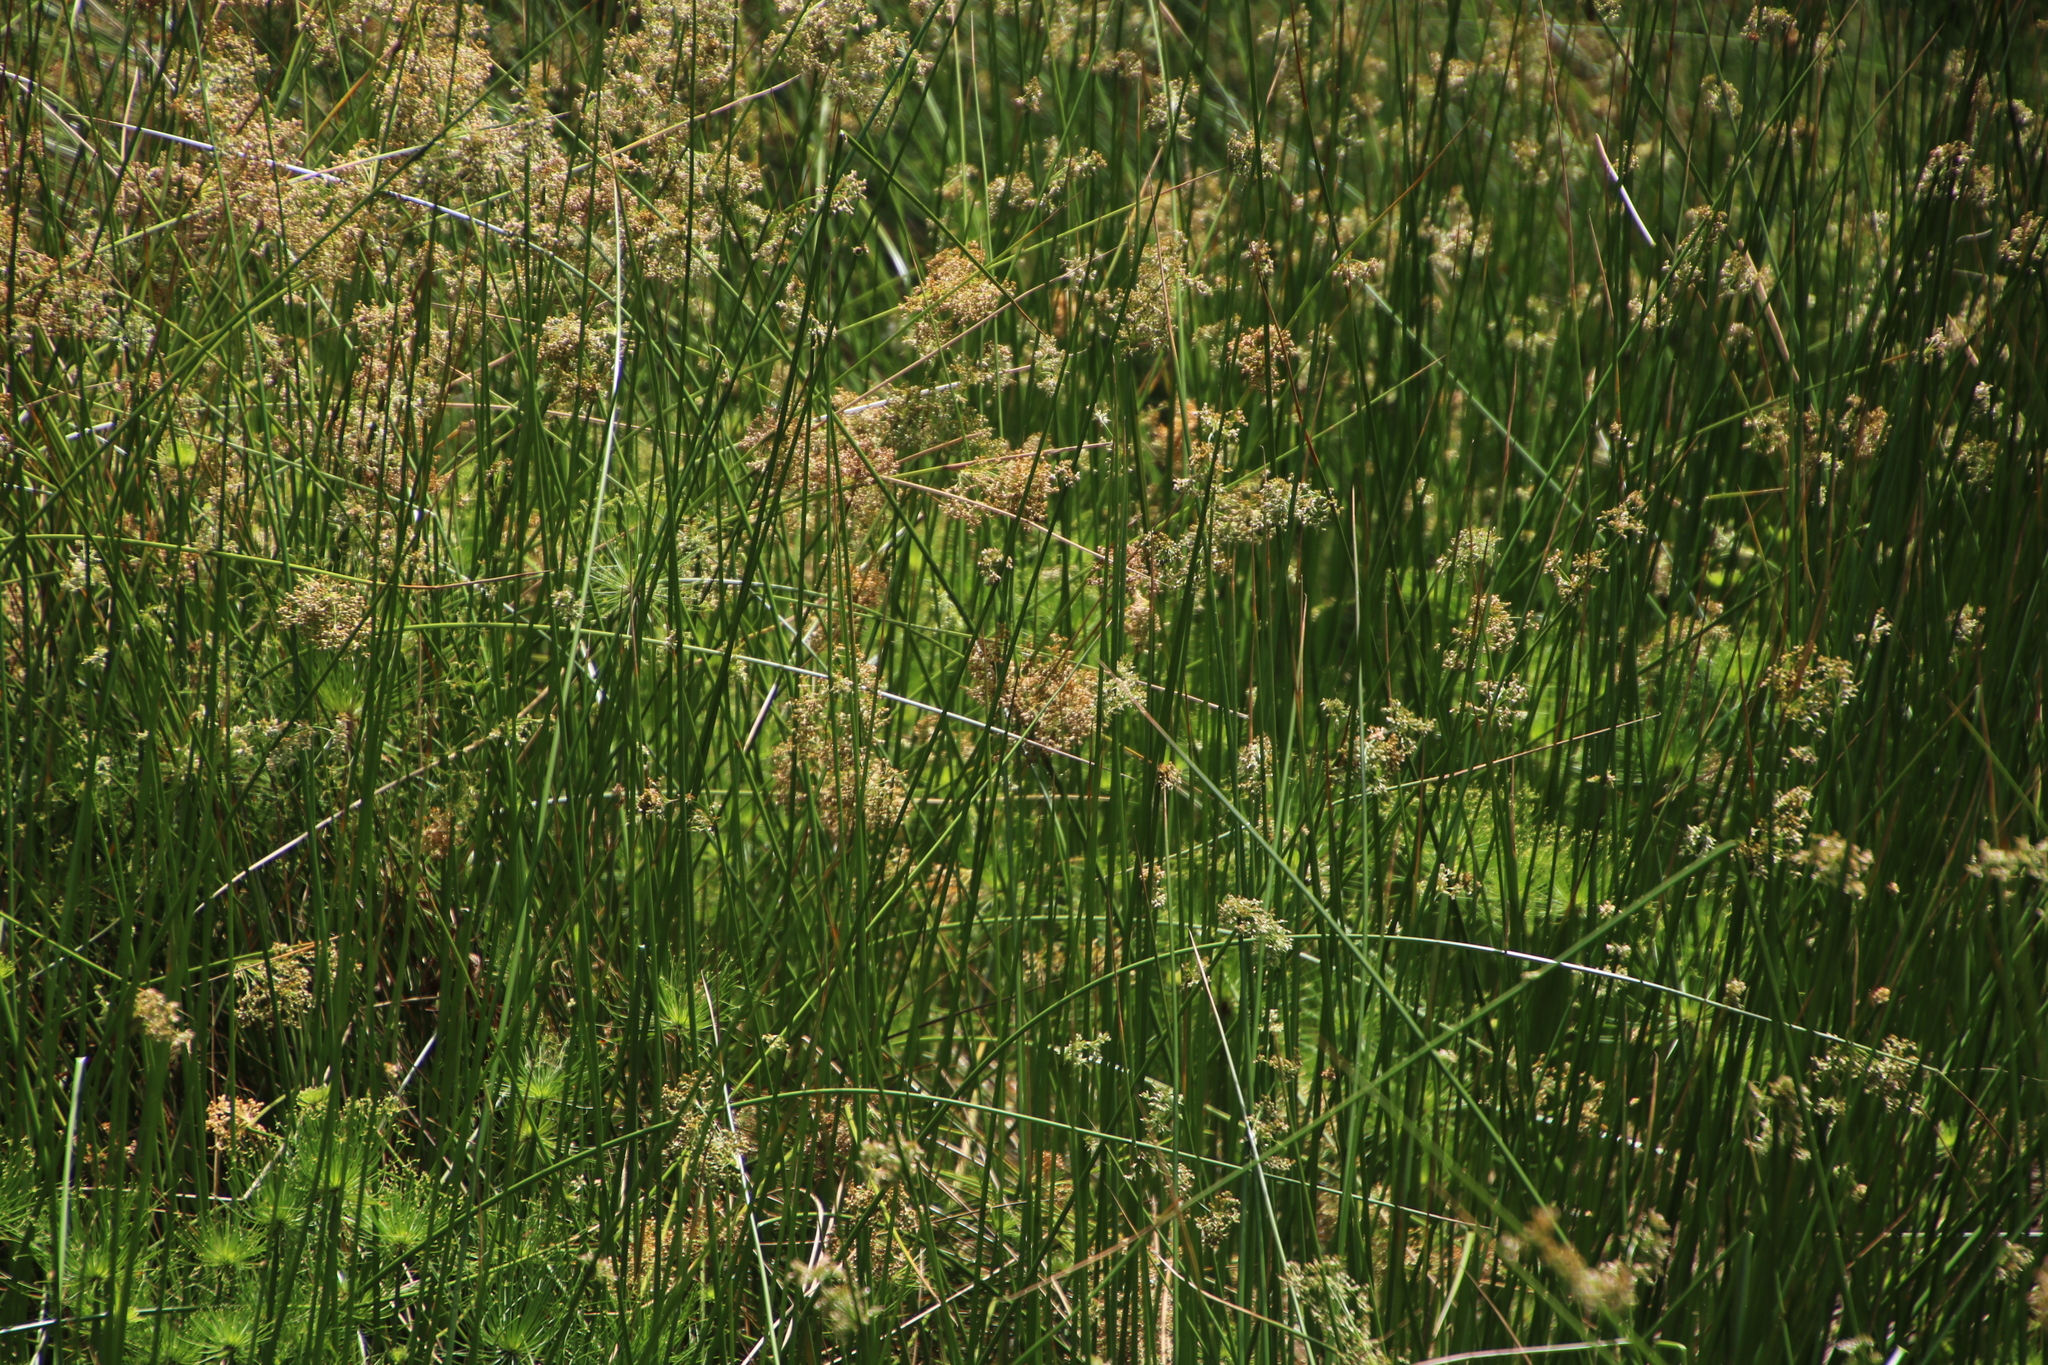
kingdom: Plantae
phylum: Tracheophyta
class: Liliopsida
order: Poales
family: Juncaceae
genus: Juncus
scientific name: Juncus effusus
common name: Soft rush
